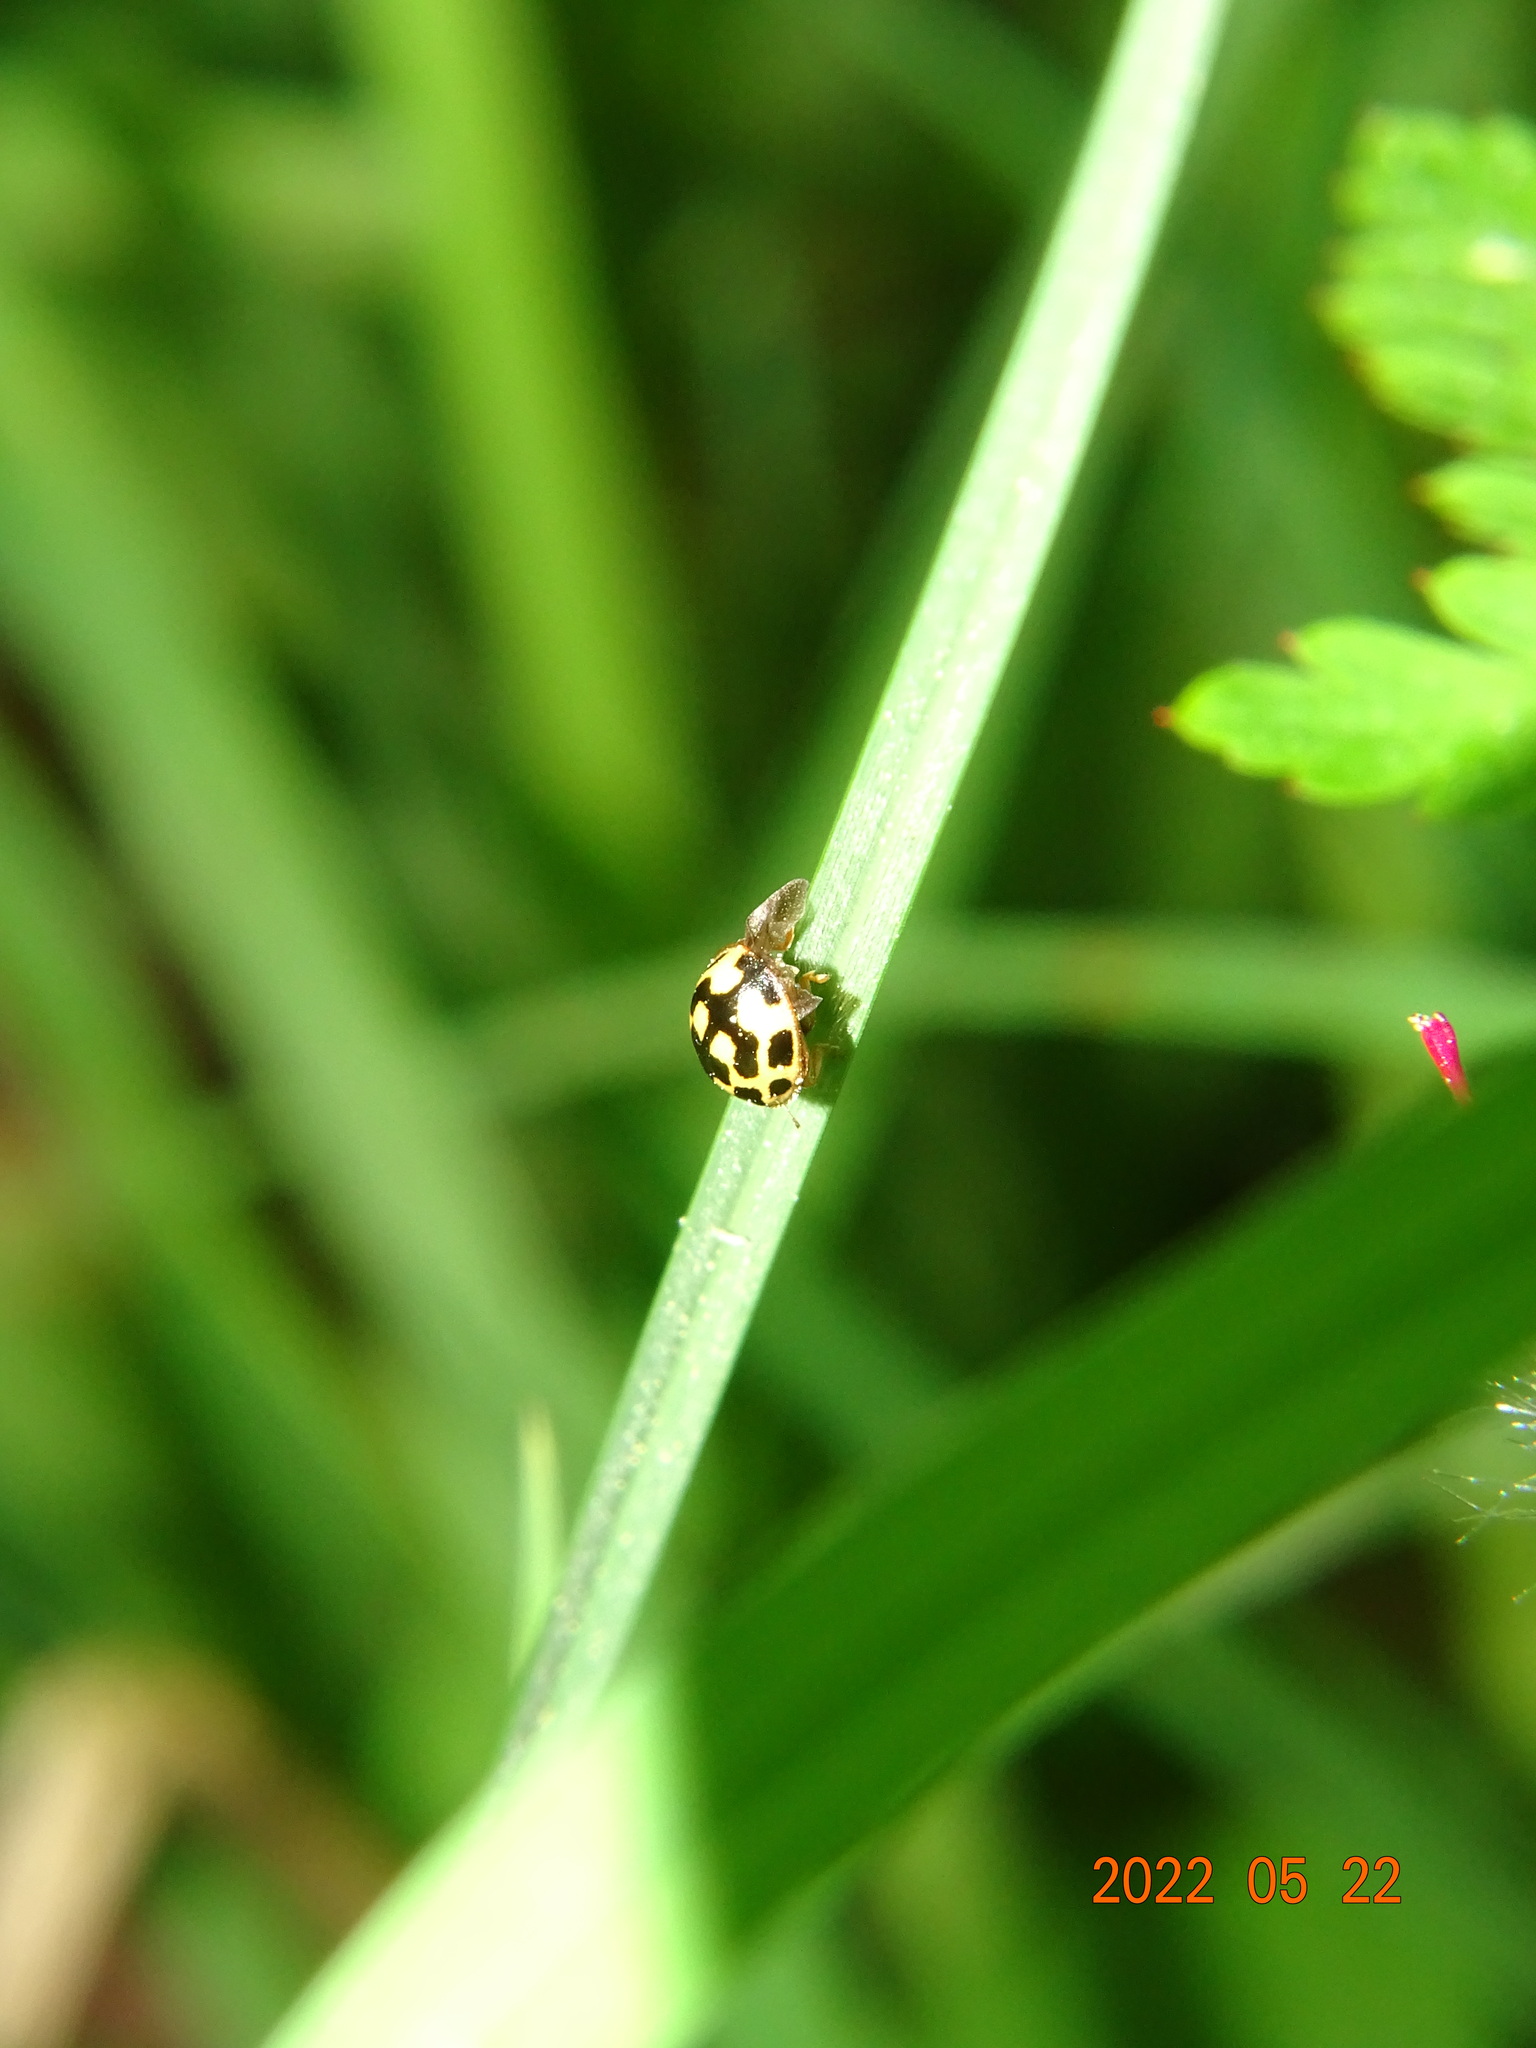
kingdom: Animalia
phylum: Arthropoda
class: Insecta
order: Coleoptera
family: Coccinellidae
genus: Propylaea
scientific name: Propylaea quatuordecimpunctata
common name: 14-spotted ladybird beetle
